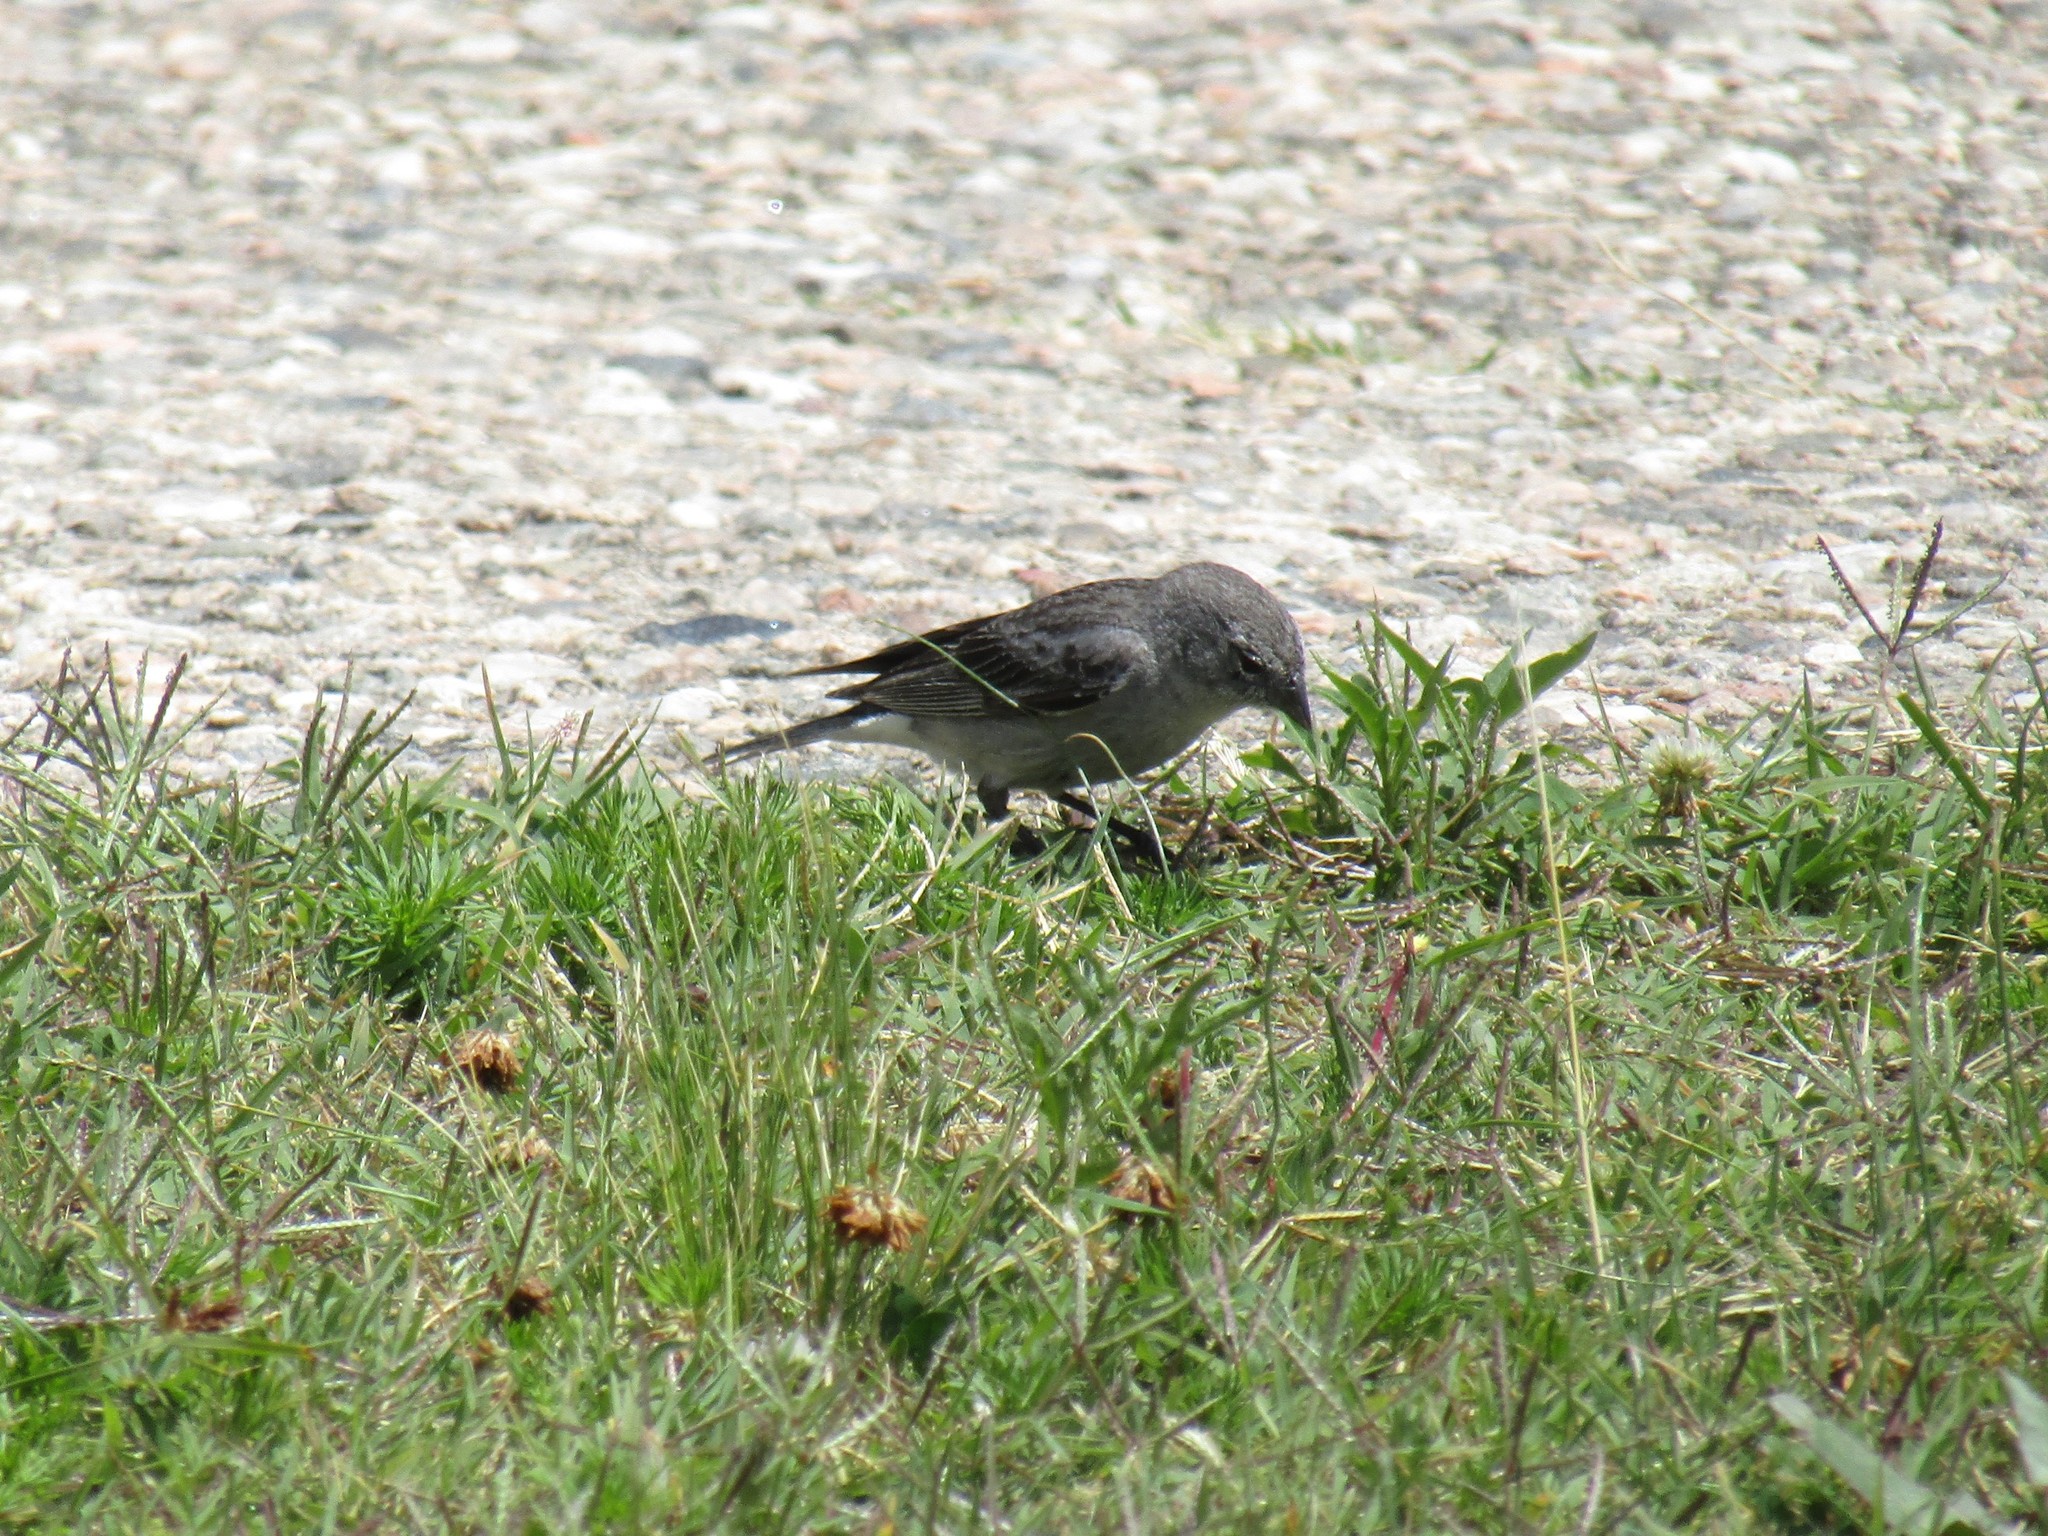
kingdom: Animalia
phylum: Chordata
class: Aves
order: Passeriformes
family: Thraupidae
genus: Geospizopsis
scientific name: Geospizopsis plebejus
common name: Ash-breasted sierra-finch
